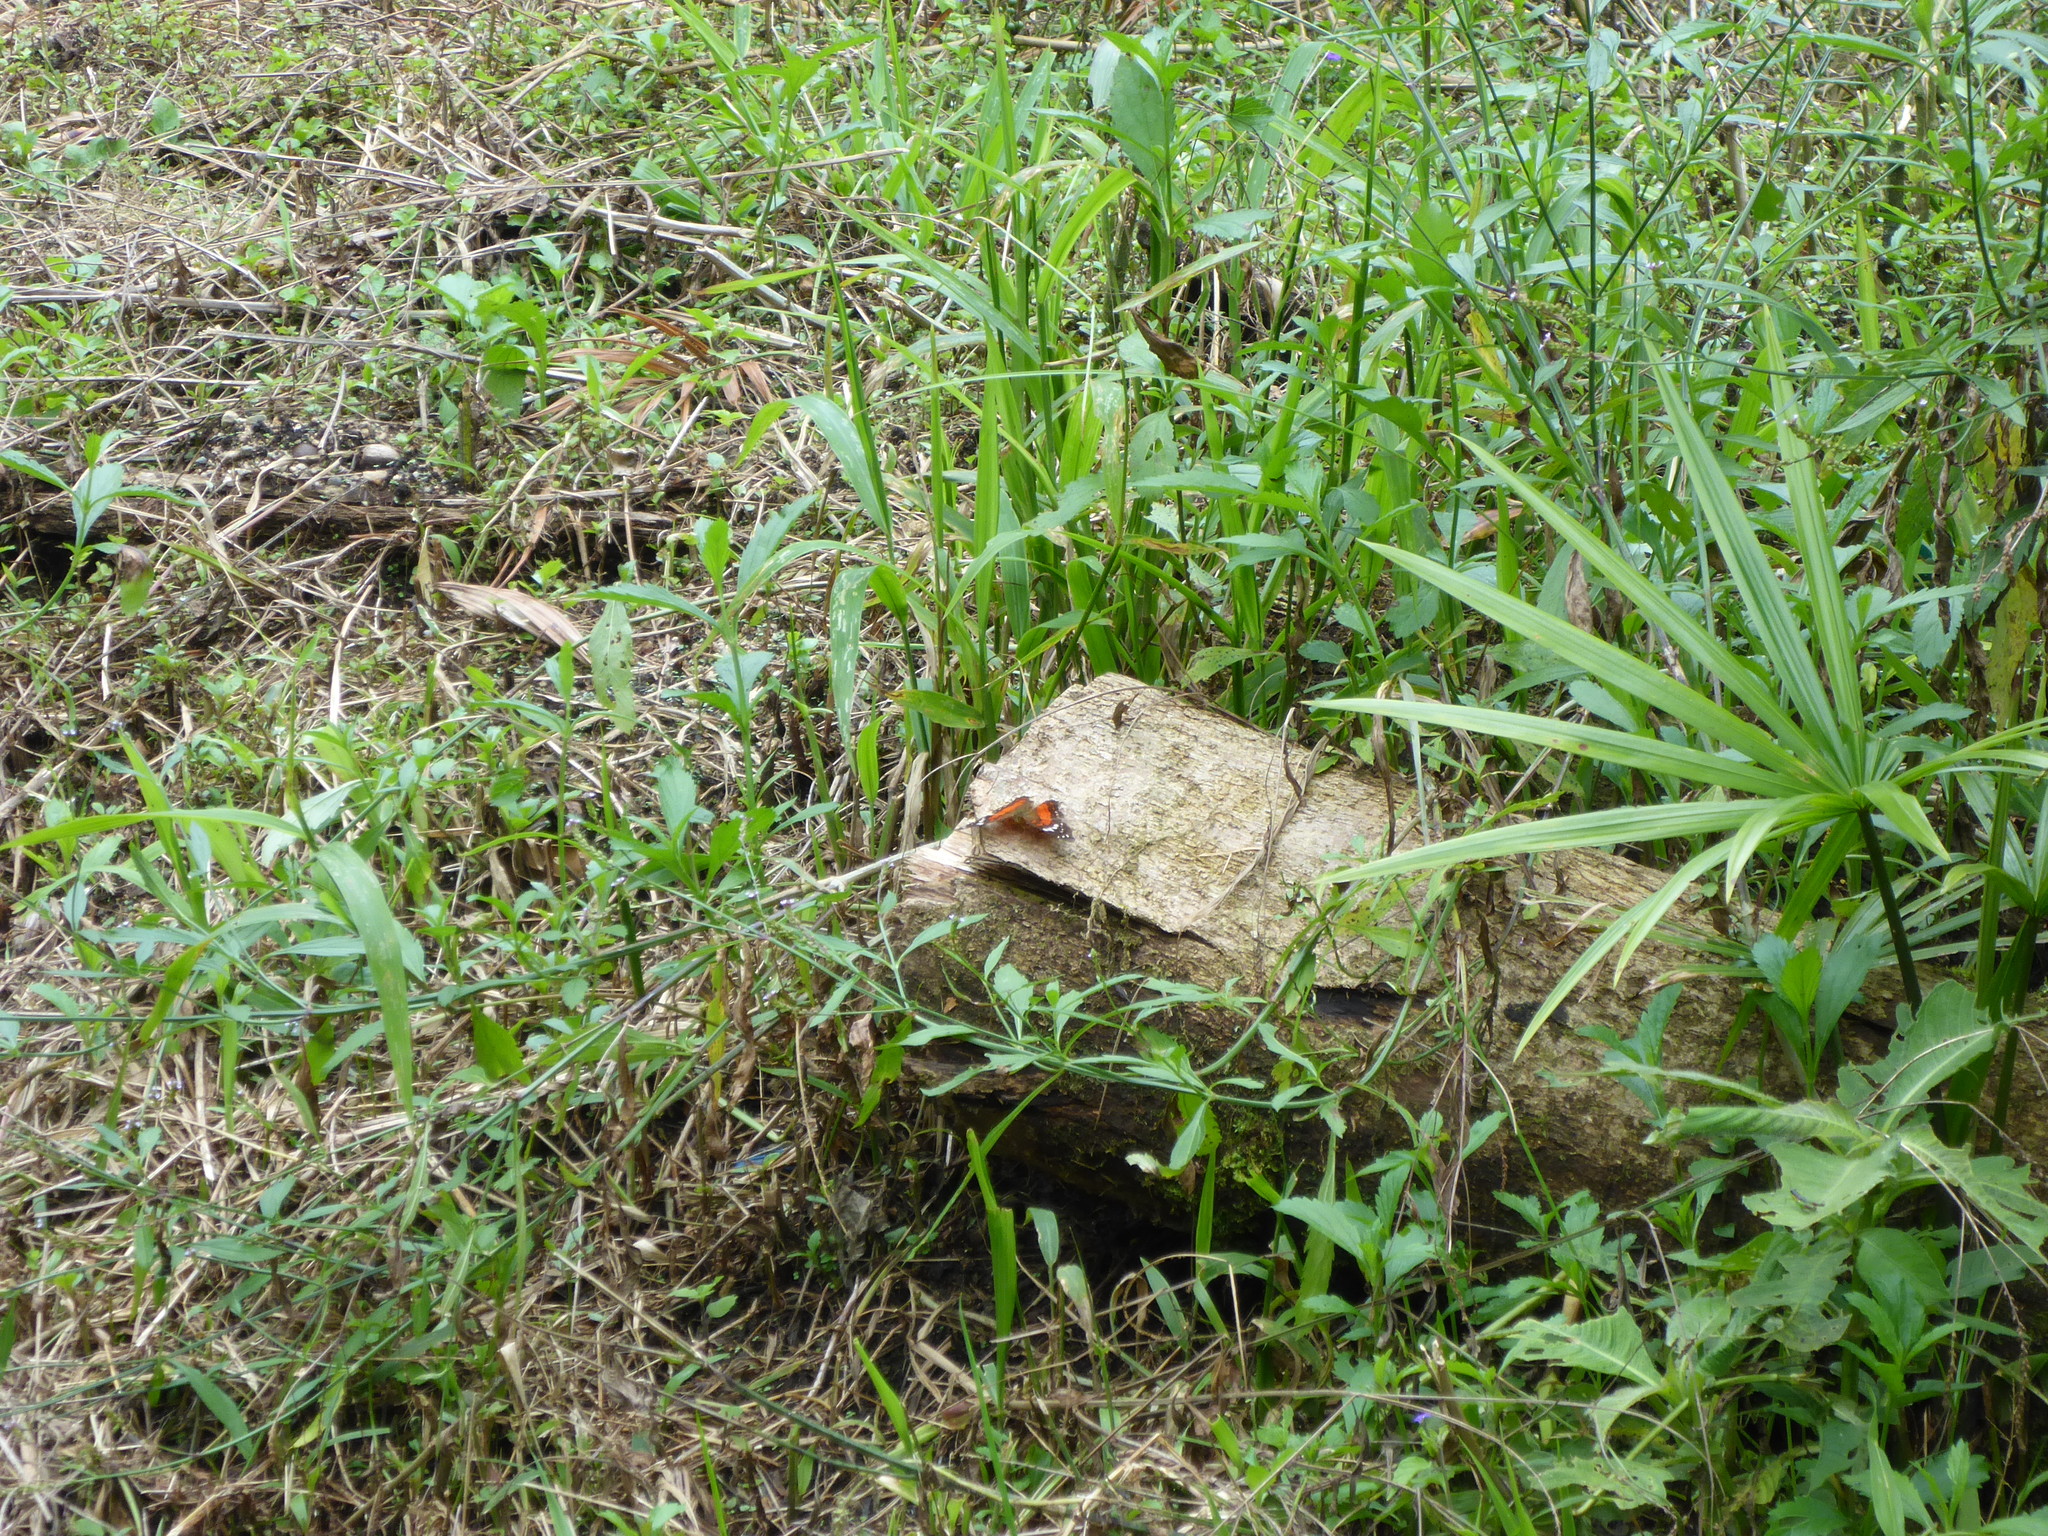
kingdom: Animalia
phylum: Arthropoda
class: Insecta
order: Lepidoptera
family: Nymphalidae
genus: Anartia
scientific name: Anartia amathea
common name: Red peacock
